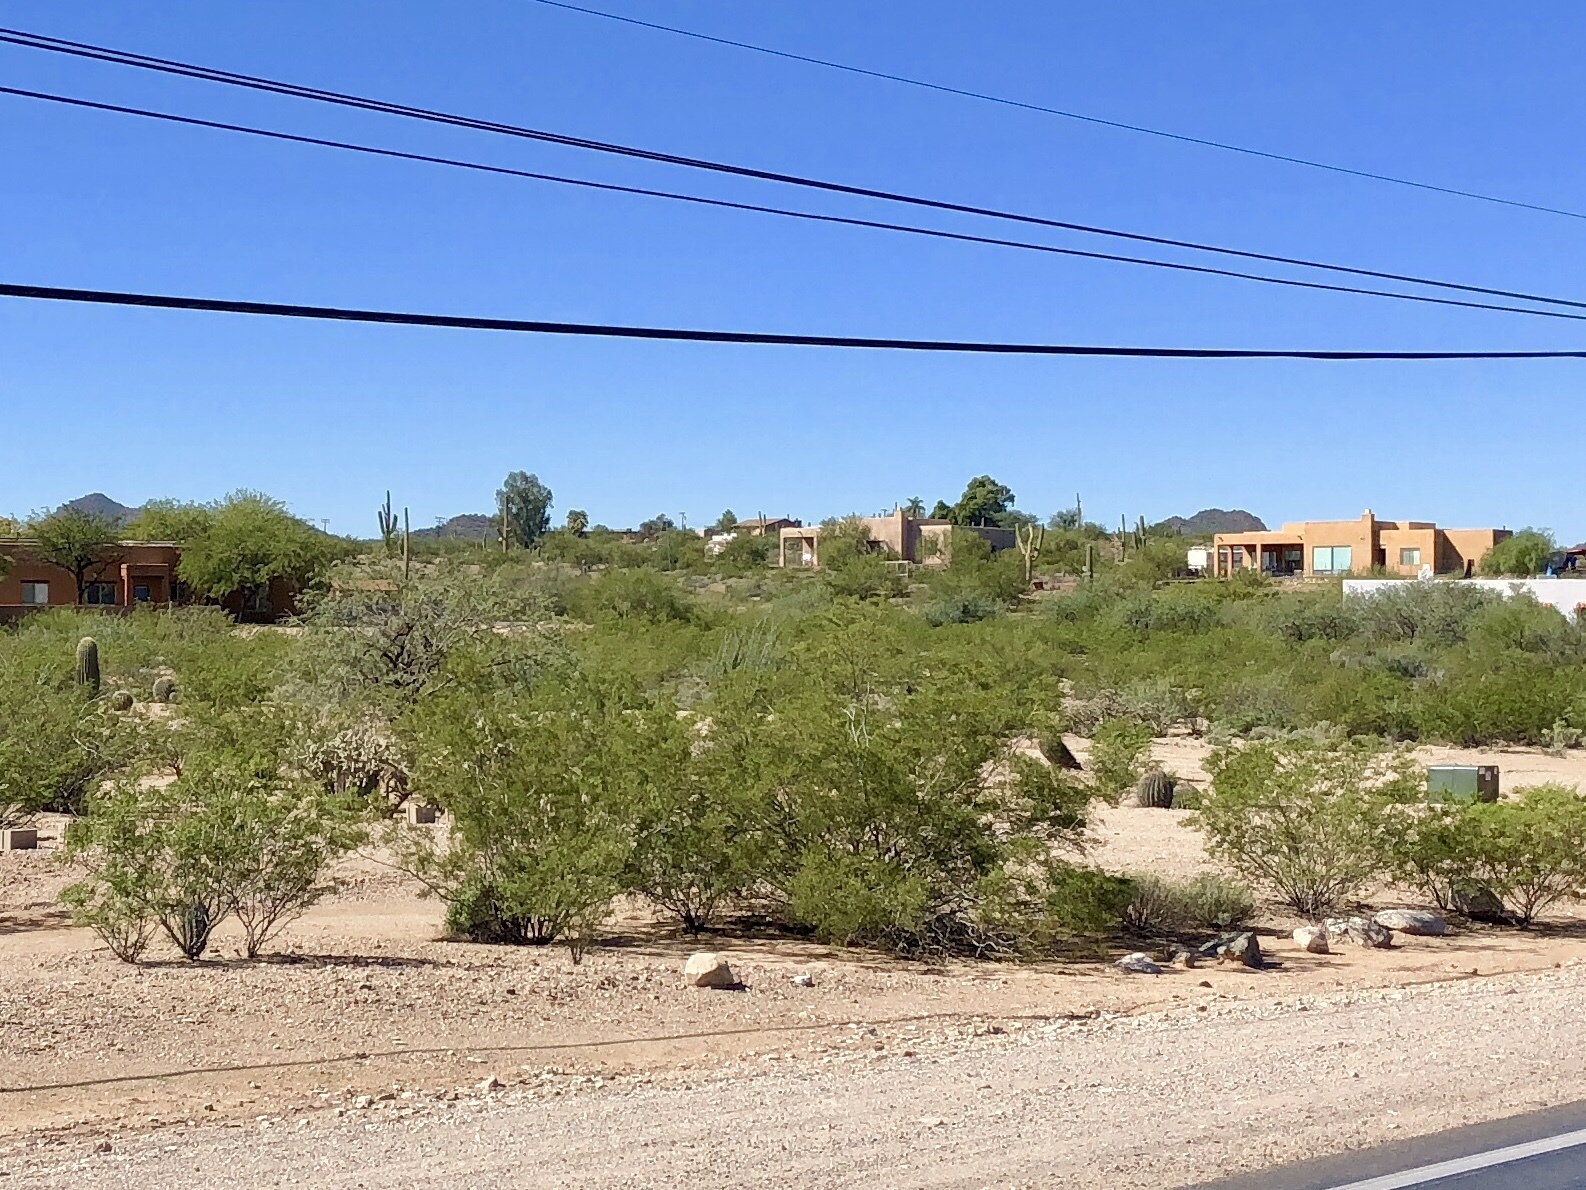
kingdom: Plantae
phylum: Tracheophyta
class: Magnoliopsida
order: Zygophyllales
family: Zygophyllaceae
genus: Larrea
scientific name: Larrea tridentata
